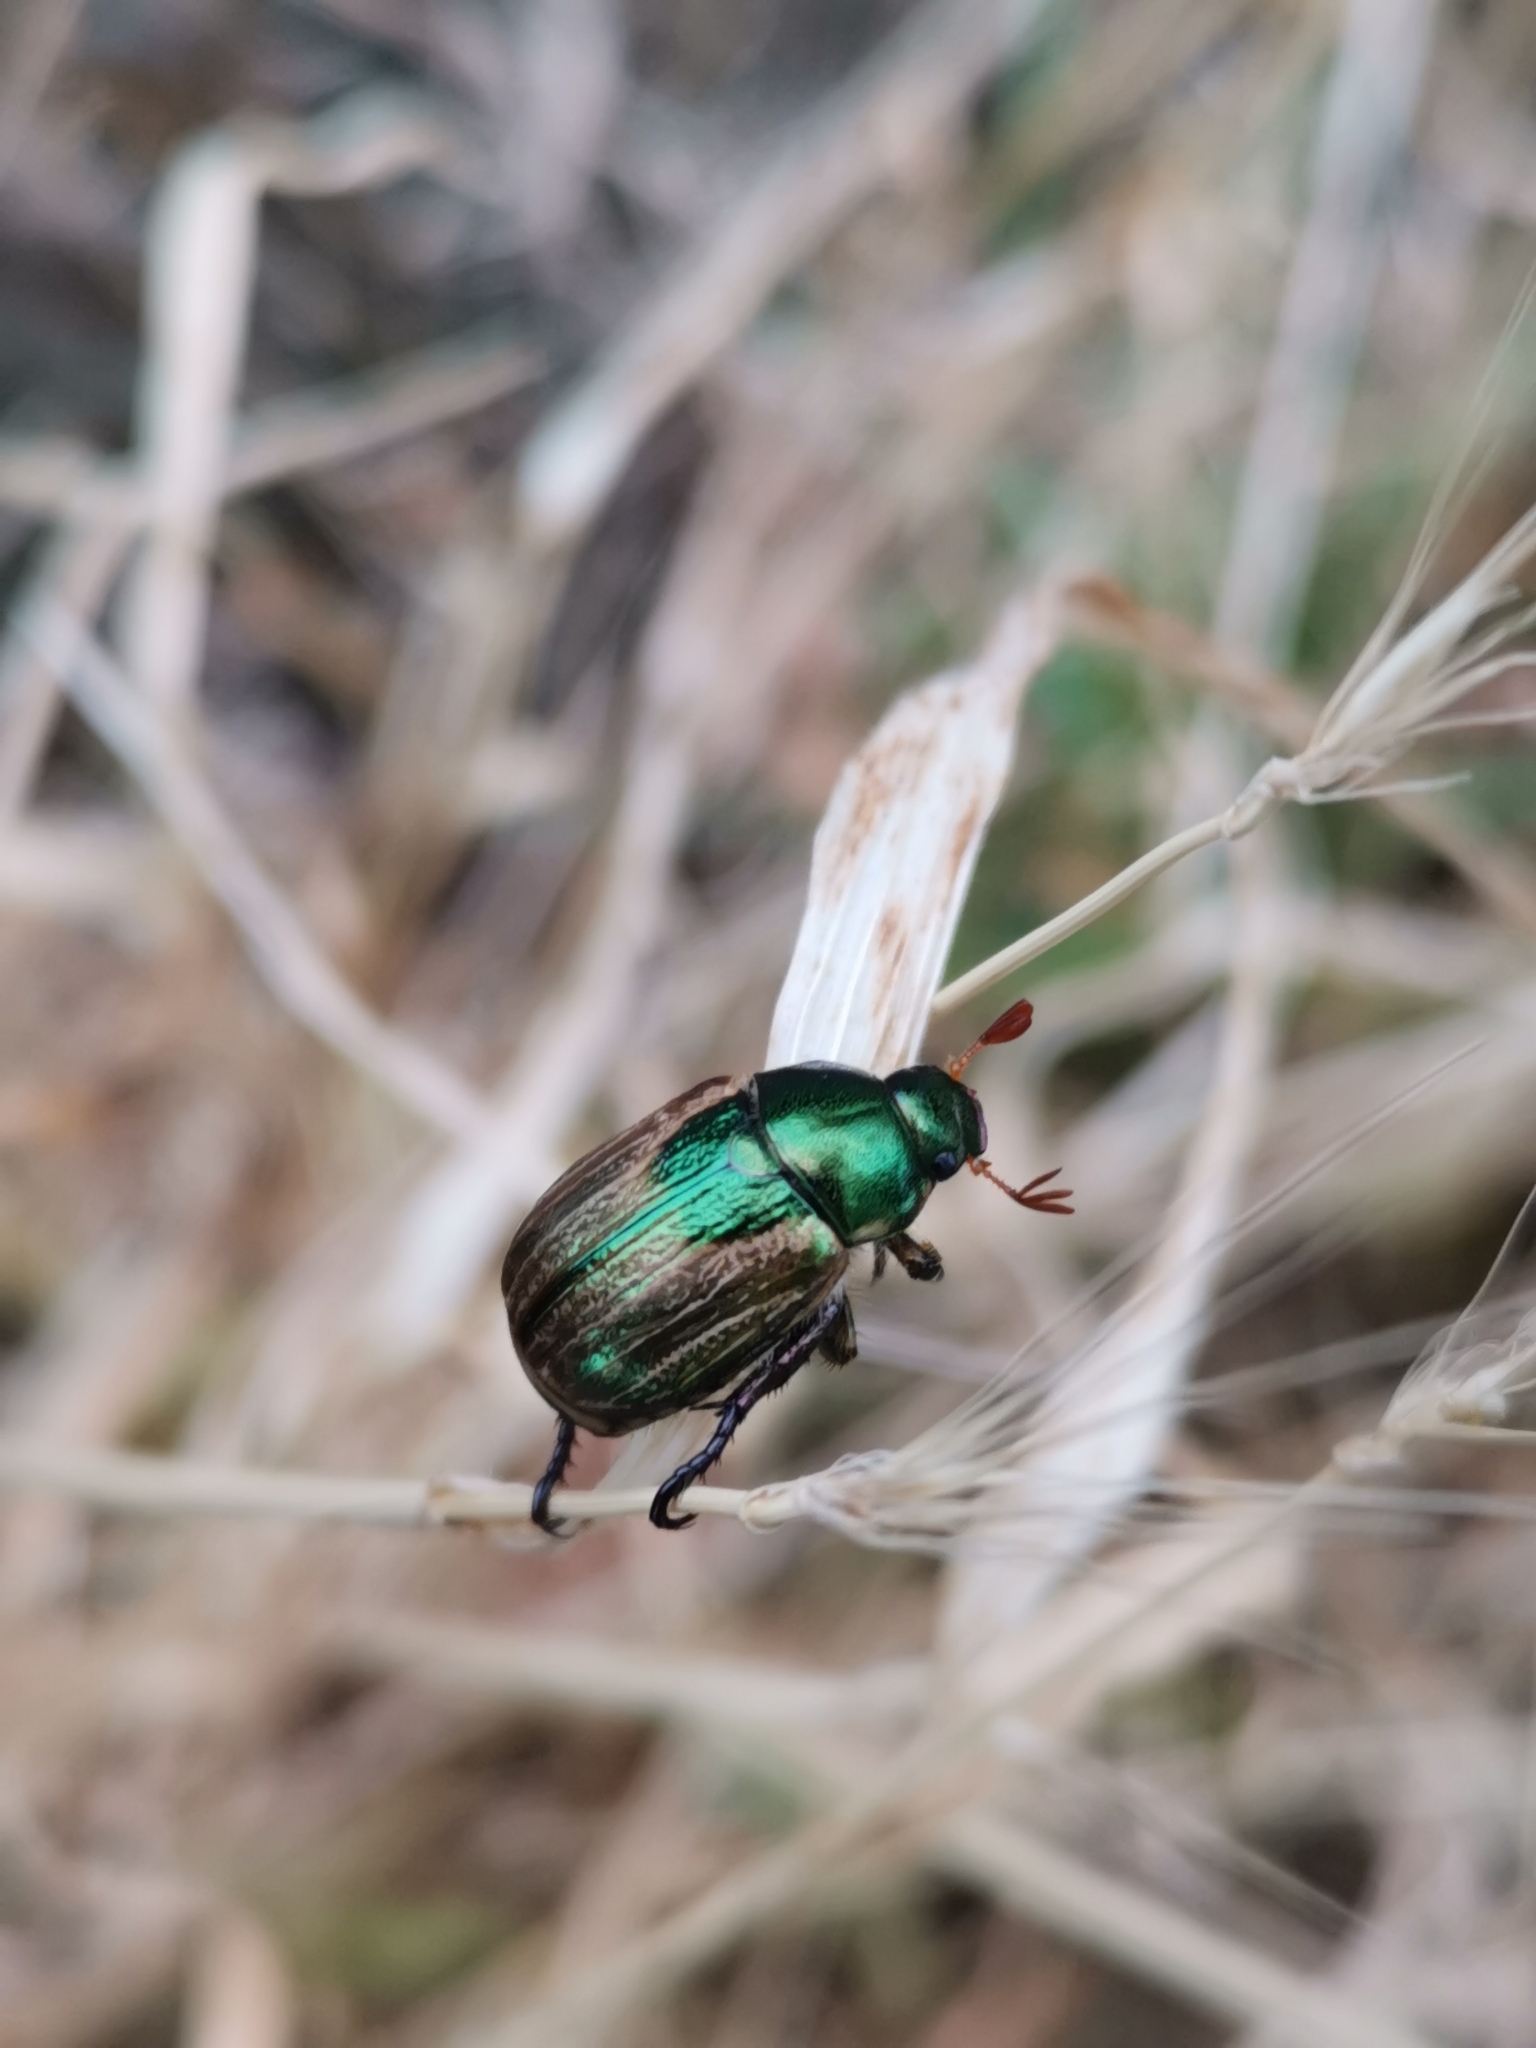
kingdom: Animalia
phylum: Arthropoda
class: Insecta
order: Coleoptera
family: Scarabaeidae
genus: Mimela
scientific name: Mimela junii
